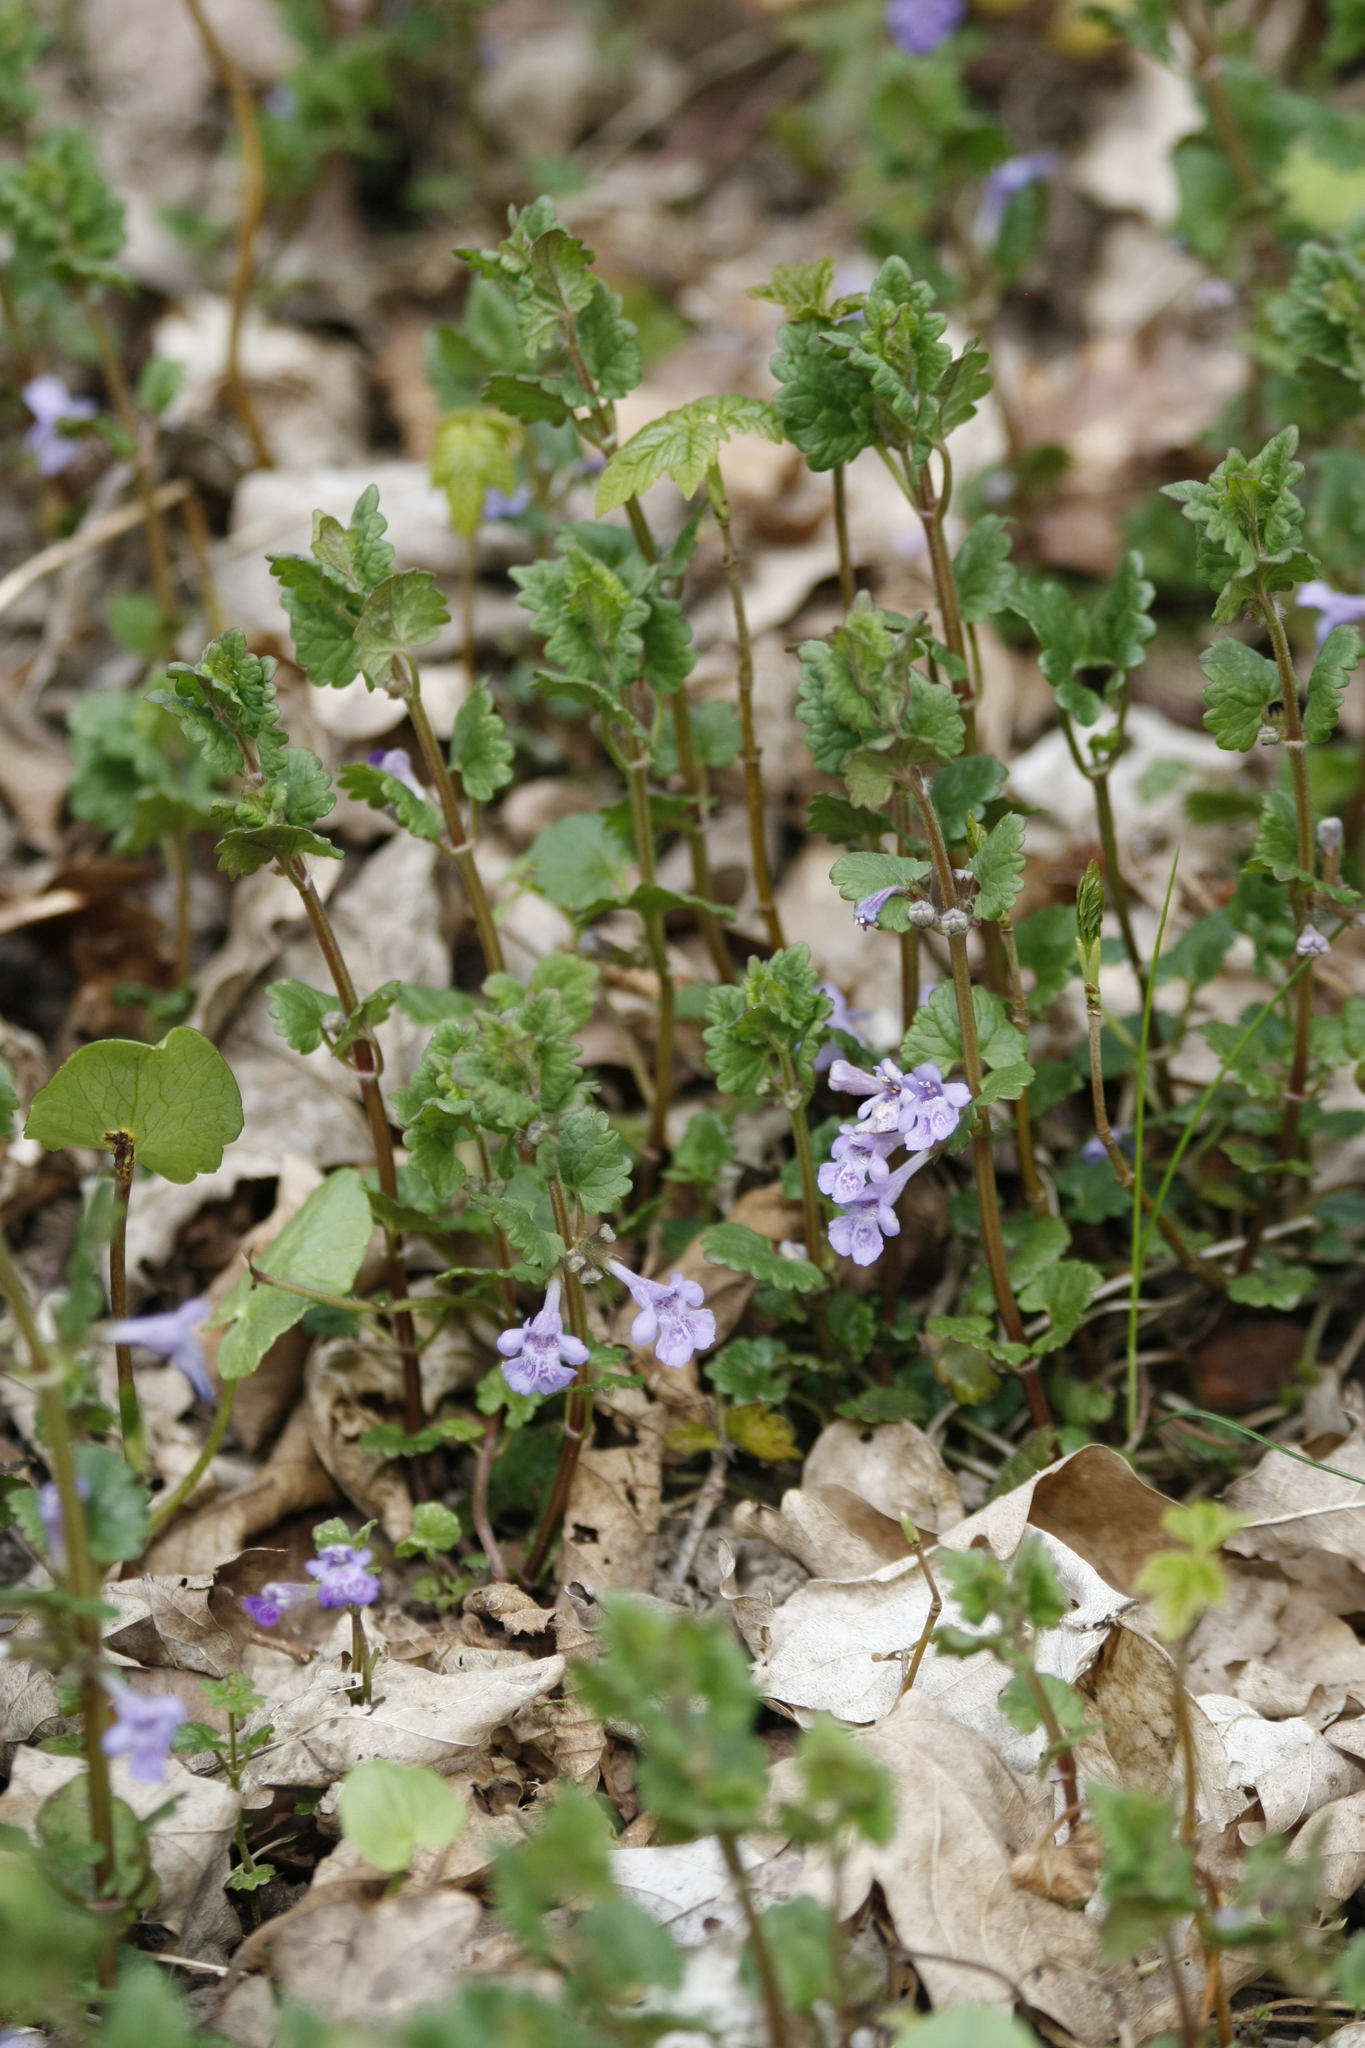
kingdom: Plantae
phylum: Tracheophyta
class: Magnoliopsida
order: Lamiales
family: Lamiaceae
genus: Glechoma
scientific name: Glechoma hederacea
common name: Ground ivy
